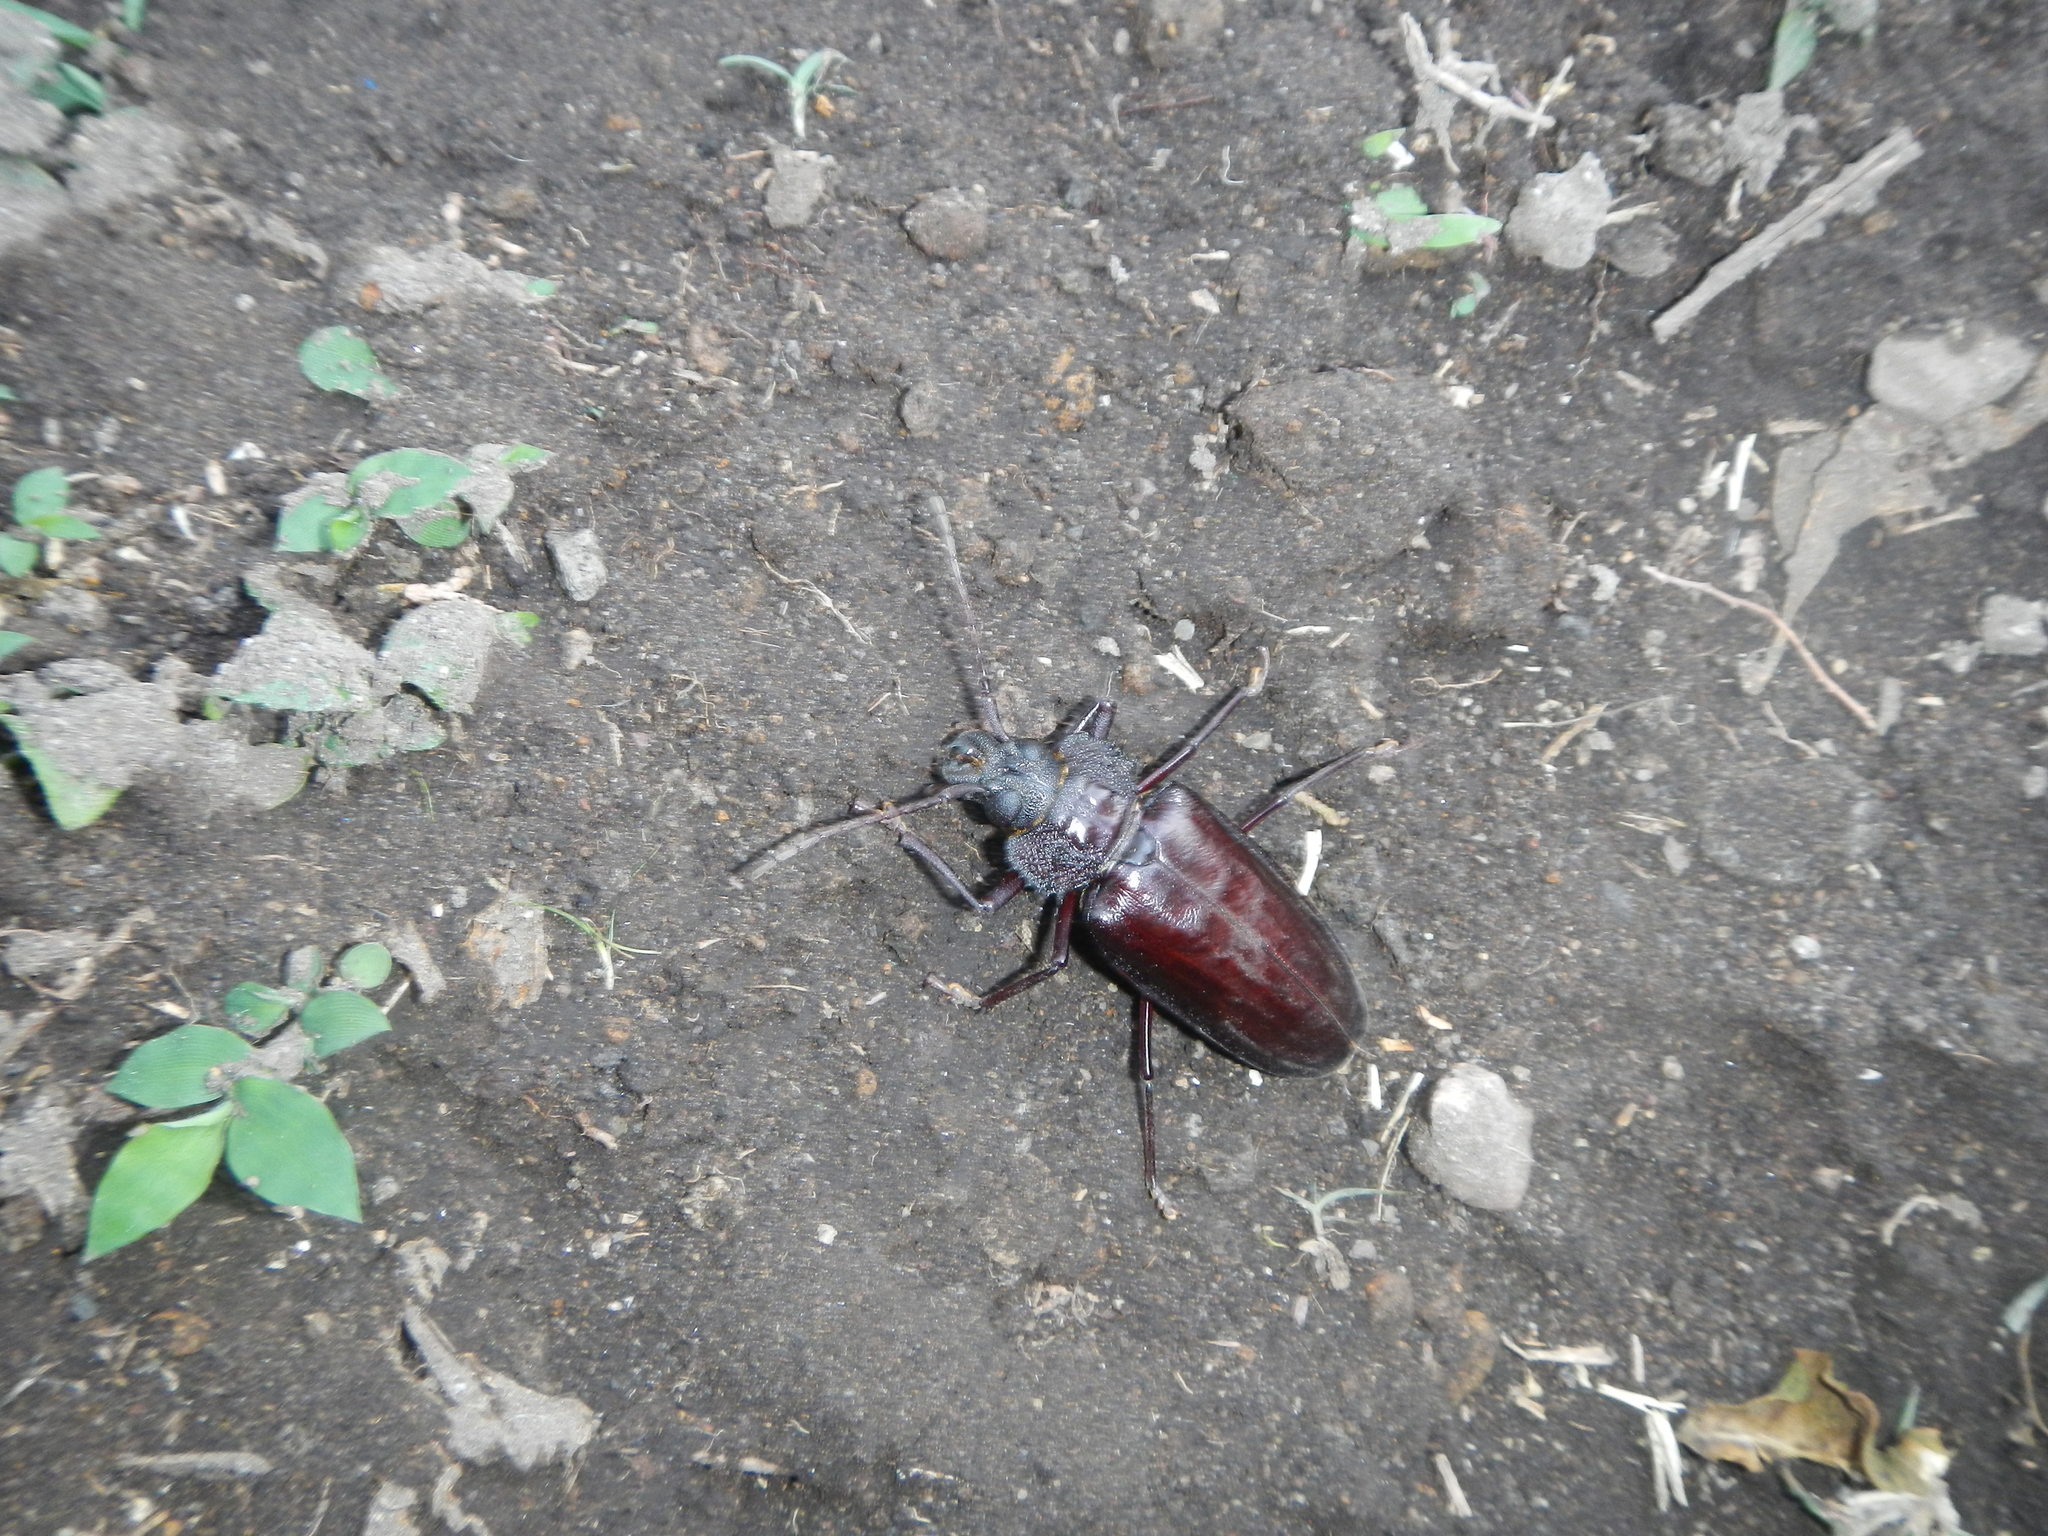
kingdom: Animalia
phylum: Arthropoda
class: Insecta
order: Coleoptera
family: Cerambycidae
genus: Mallodonopsis
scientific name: Mallodonopsis mexicanus
